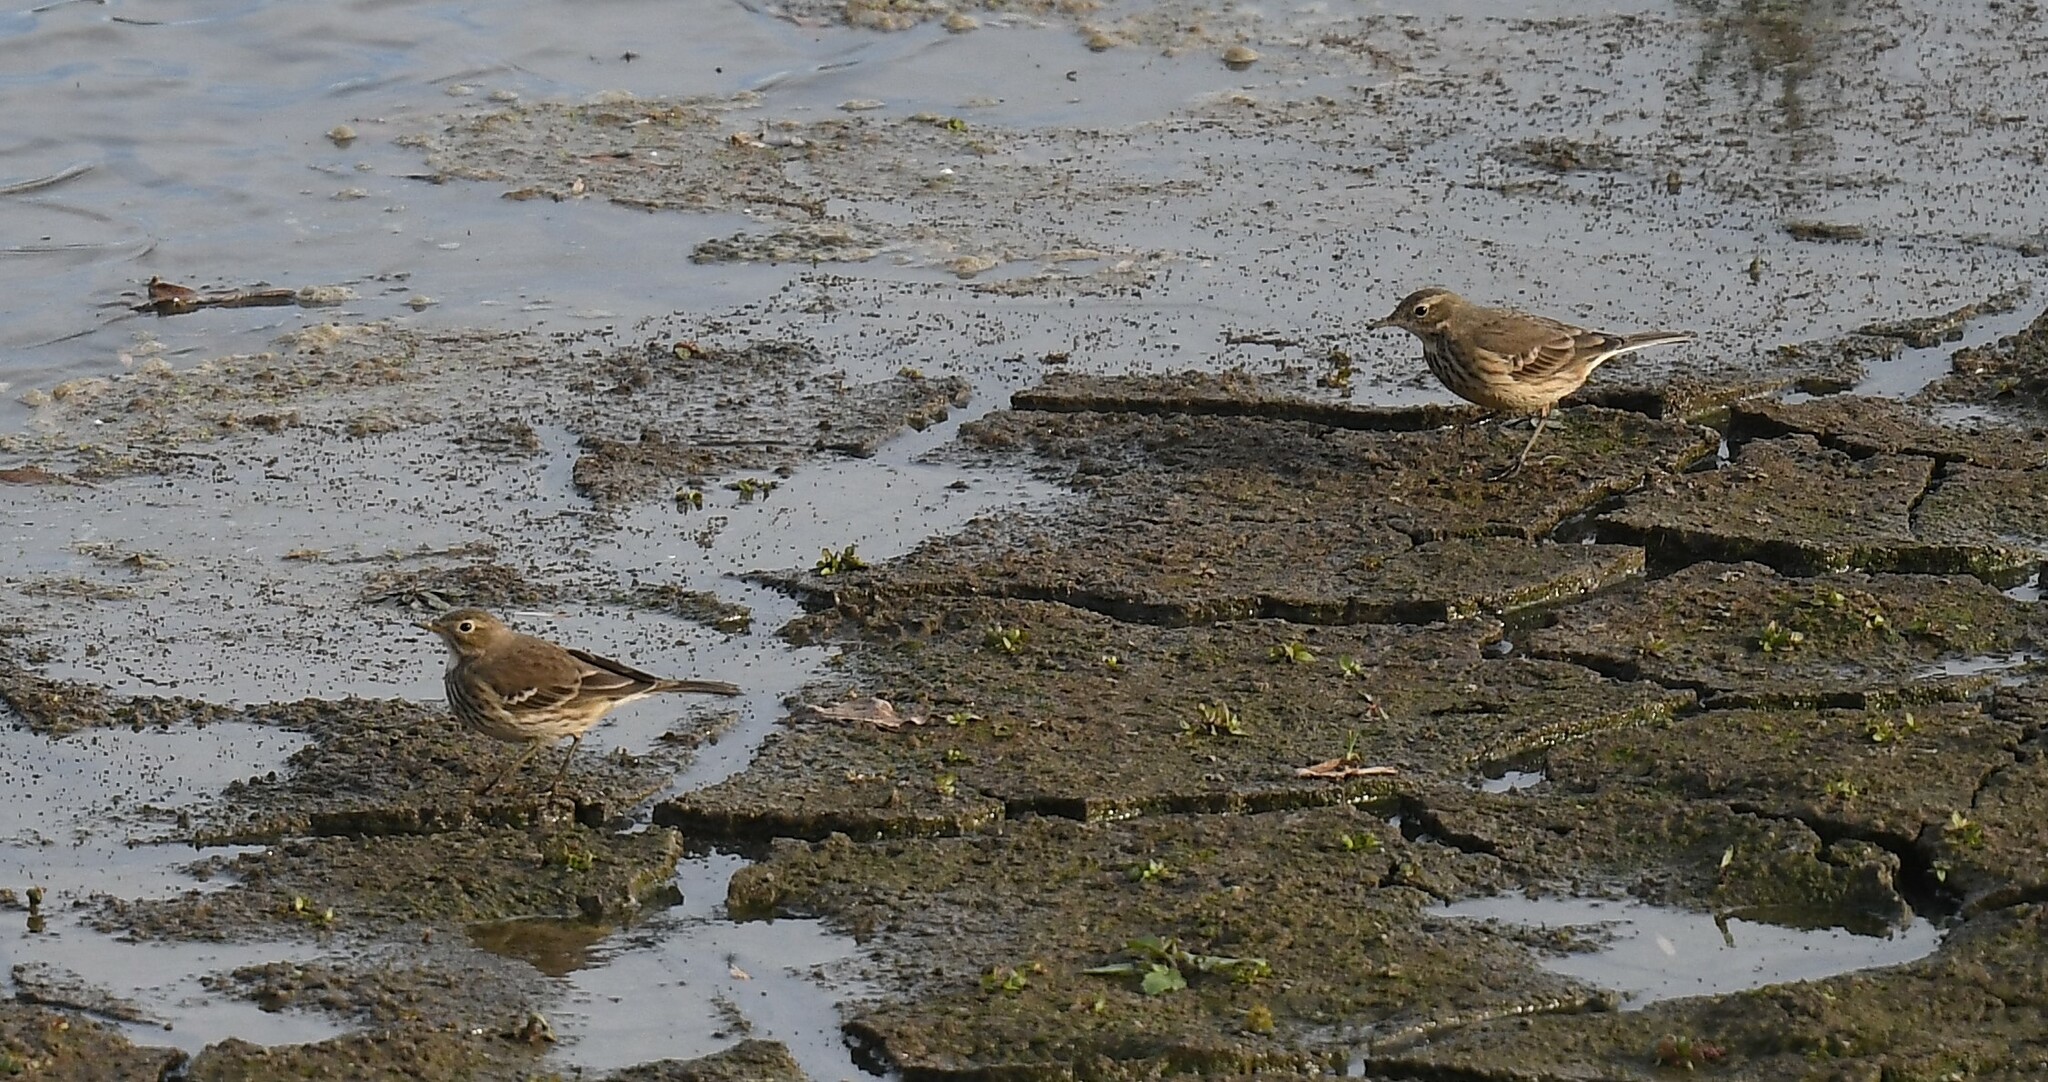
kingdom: Animalia
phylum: Chordata
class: Aves
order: Passeriformes
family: Motacillidae
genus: Anthus
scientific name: Anthus rubescens
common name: Buff-bellied pipit
